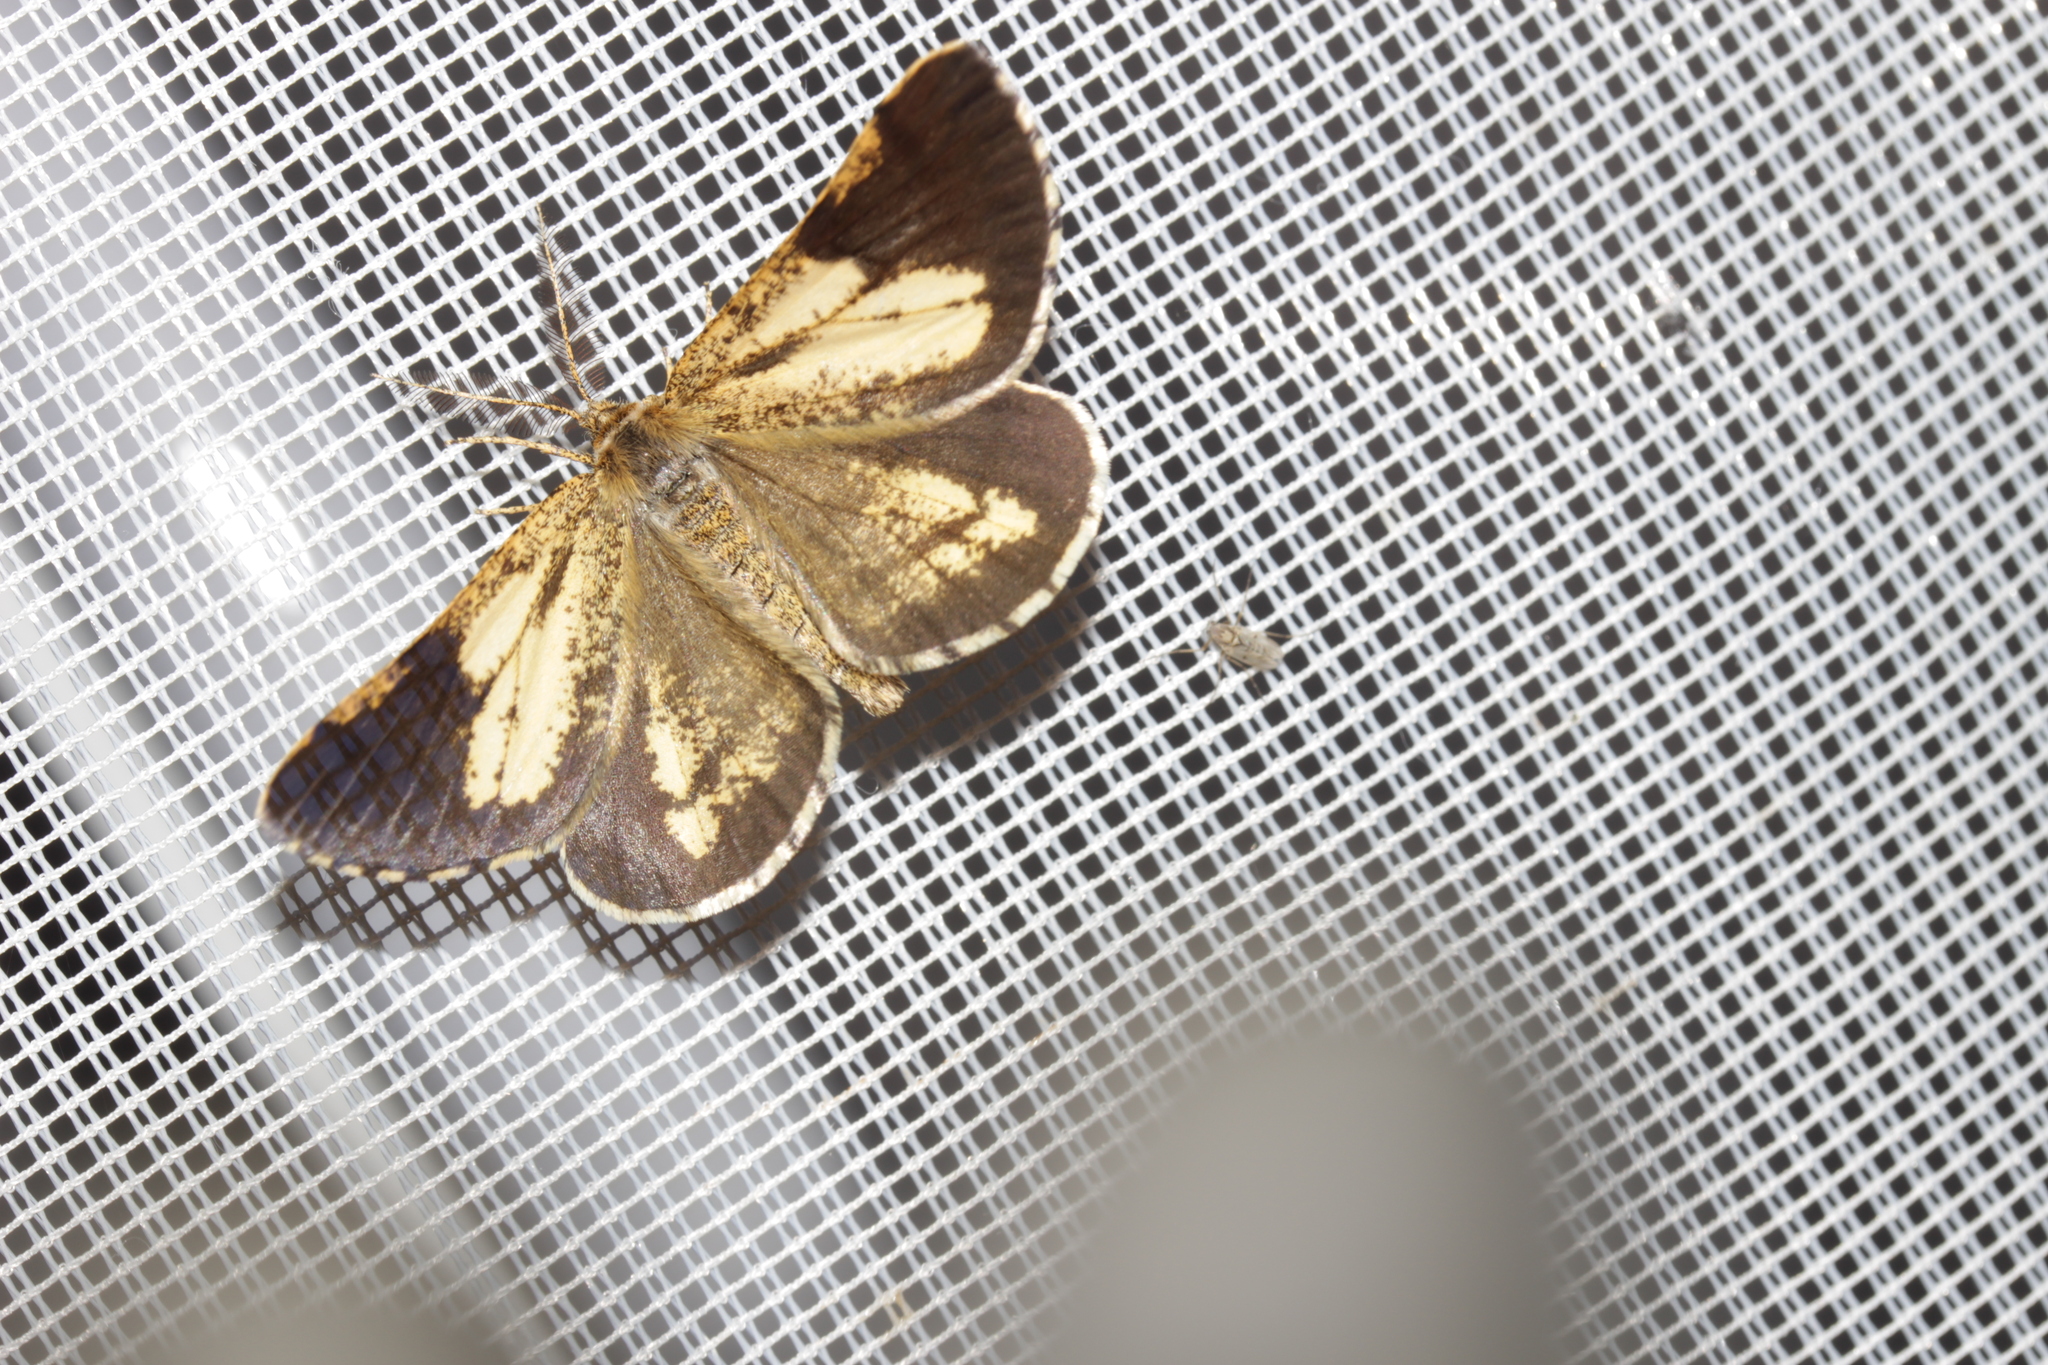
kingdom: Animalia
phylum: Arthropoda
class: Insecta
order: Lepidoptera
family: Geometridae
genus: Bupalus
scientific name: Bupalus piniaria
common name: Bordered white
